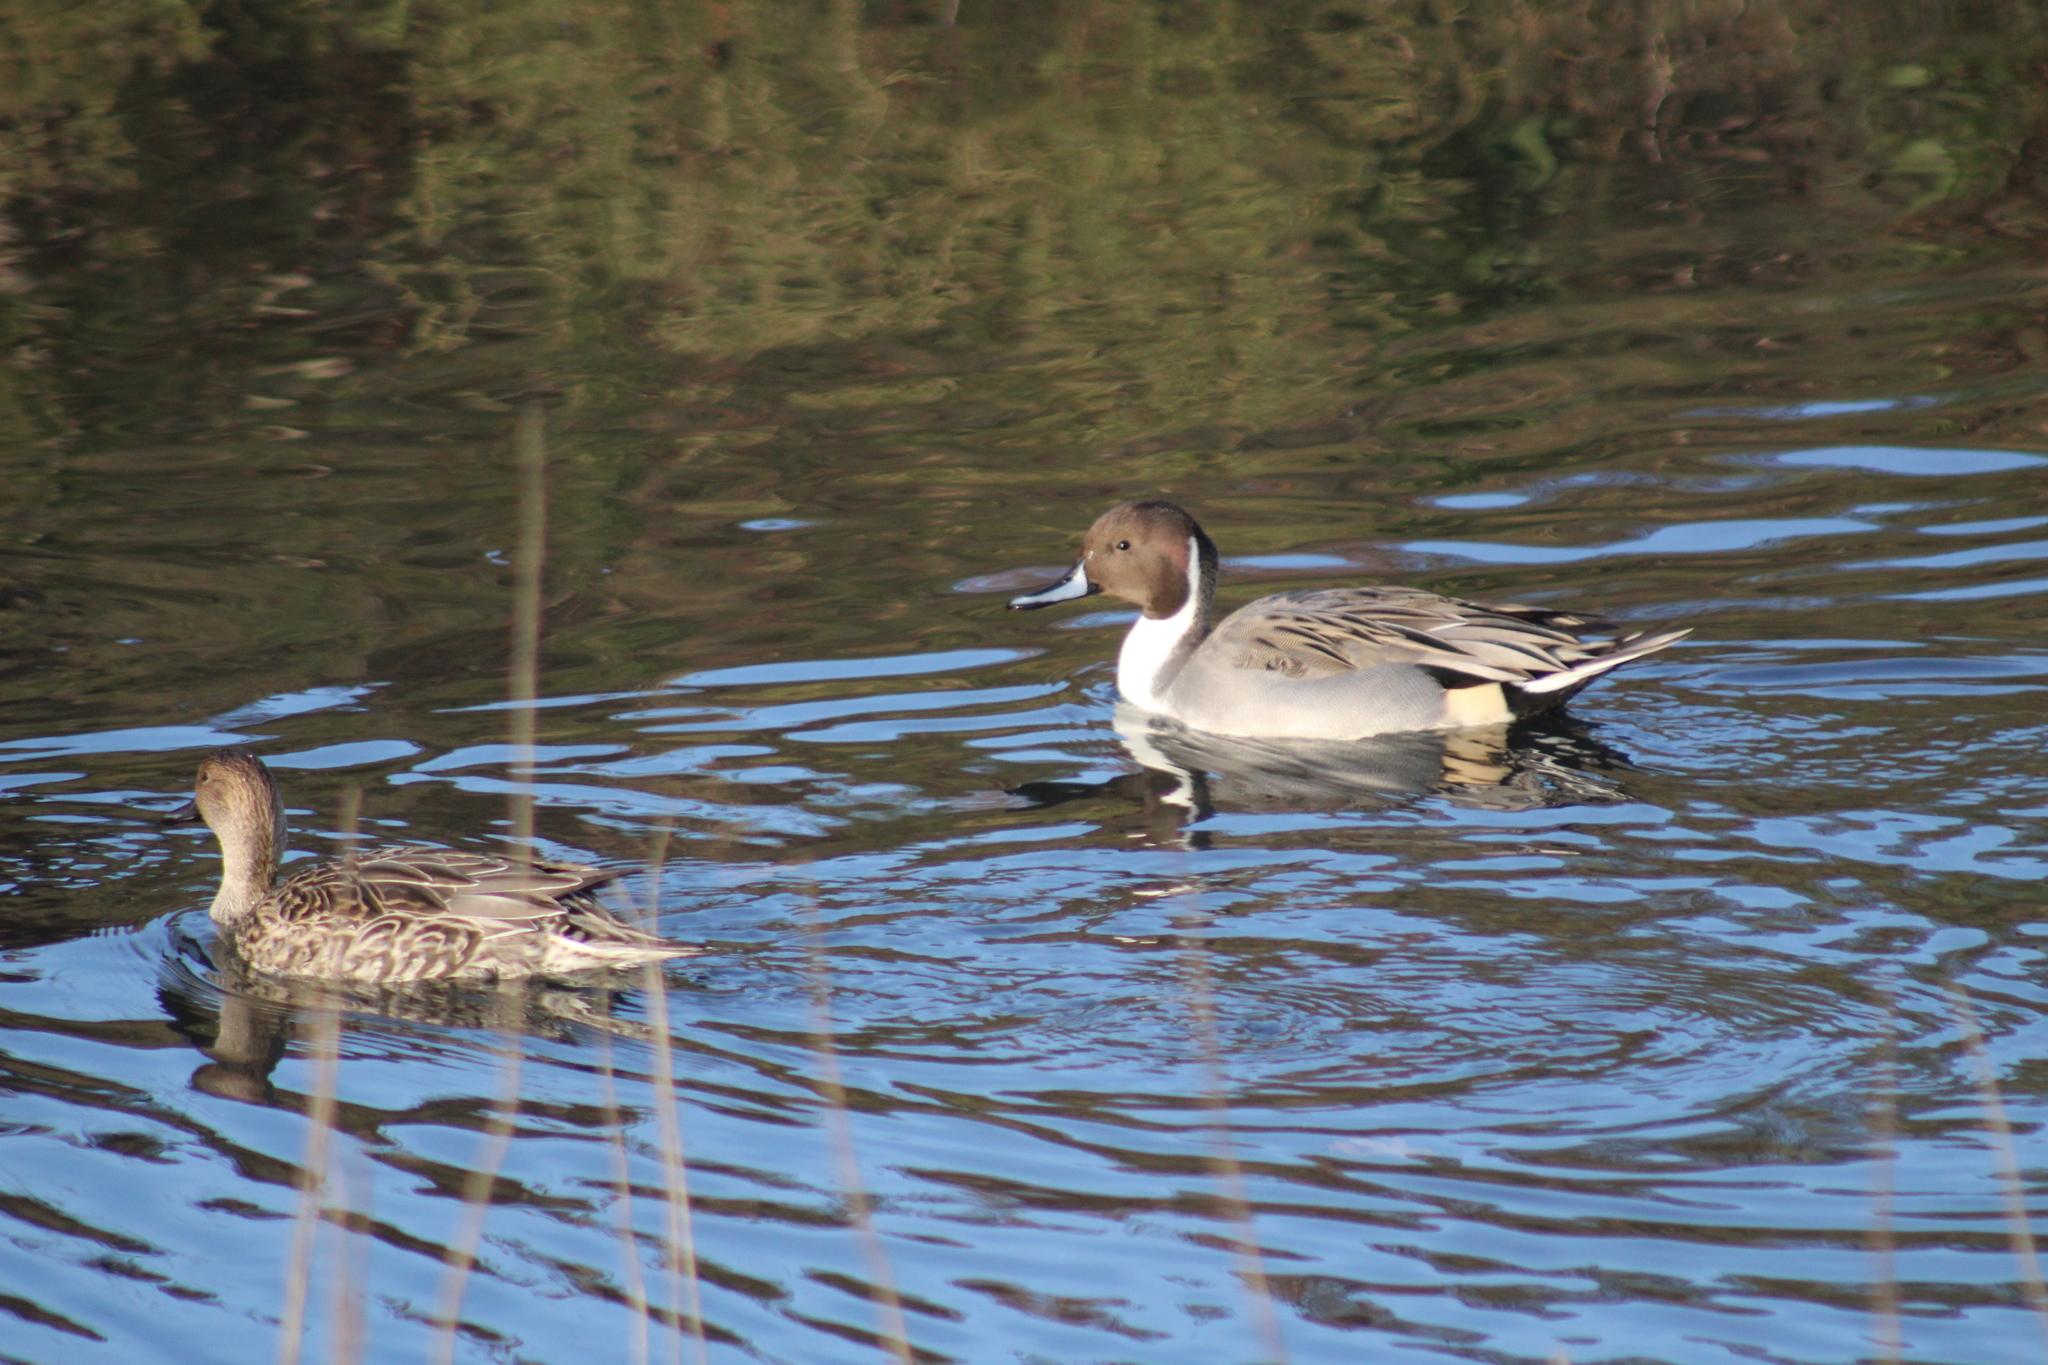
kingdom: Animalia
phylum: Chordata
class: Aves
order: Anseriformes
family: Anatidae
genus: Anas
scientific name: Anas acuta
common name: Northern pintail
